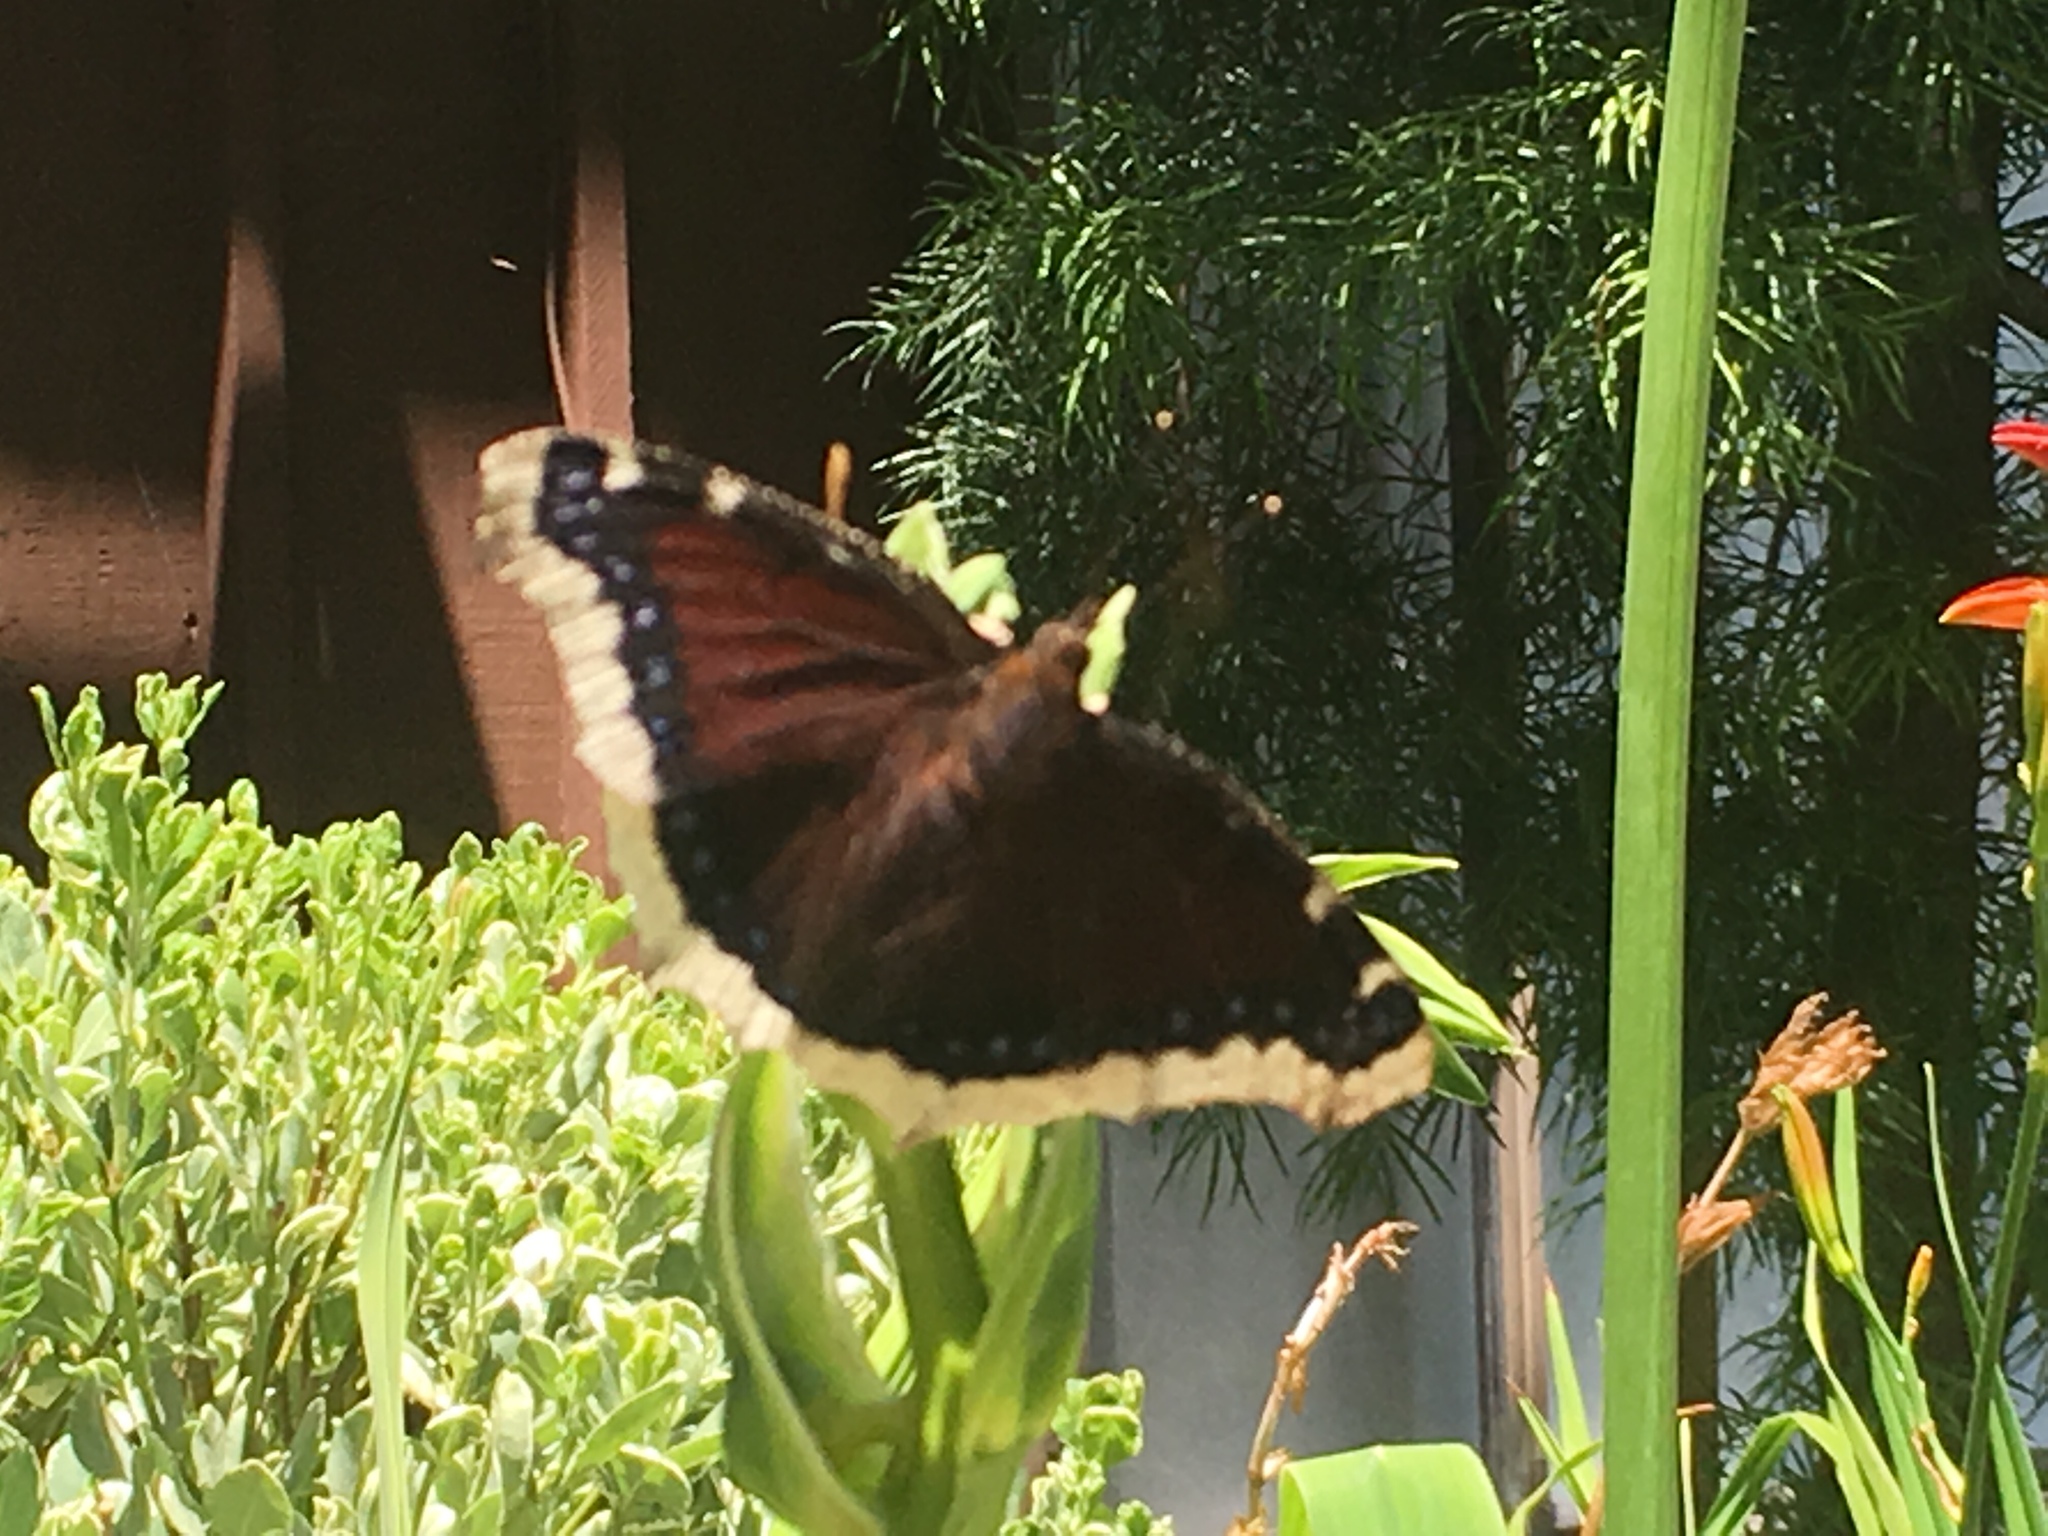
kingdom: Animalia
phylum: Arthropoda
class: Insecta
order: Lepidoptera
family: Nymphalidae
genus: Nymphalis
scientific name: Nymphalis antiopa
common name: Camberwell beauty
